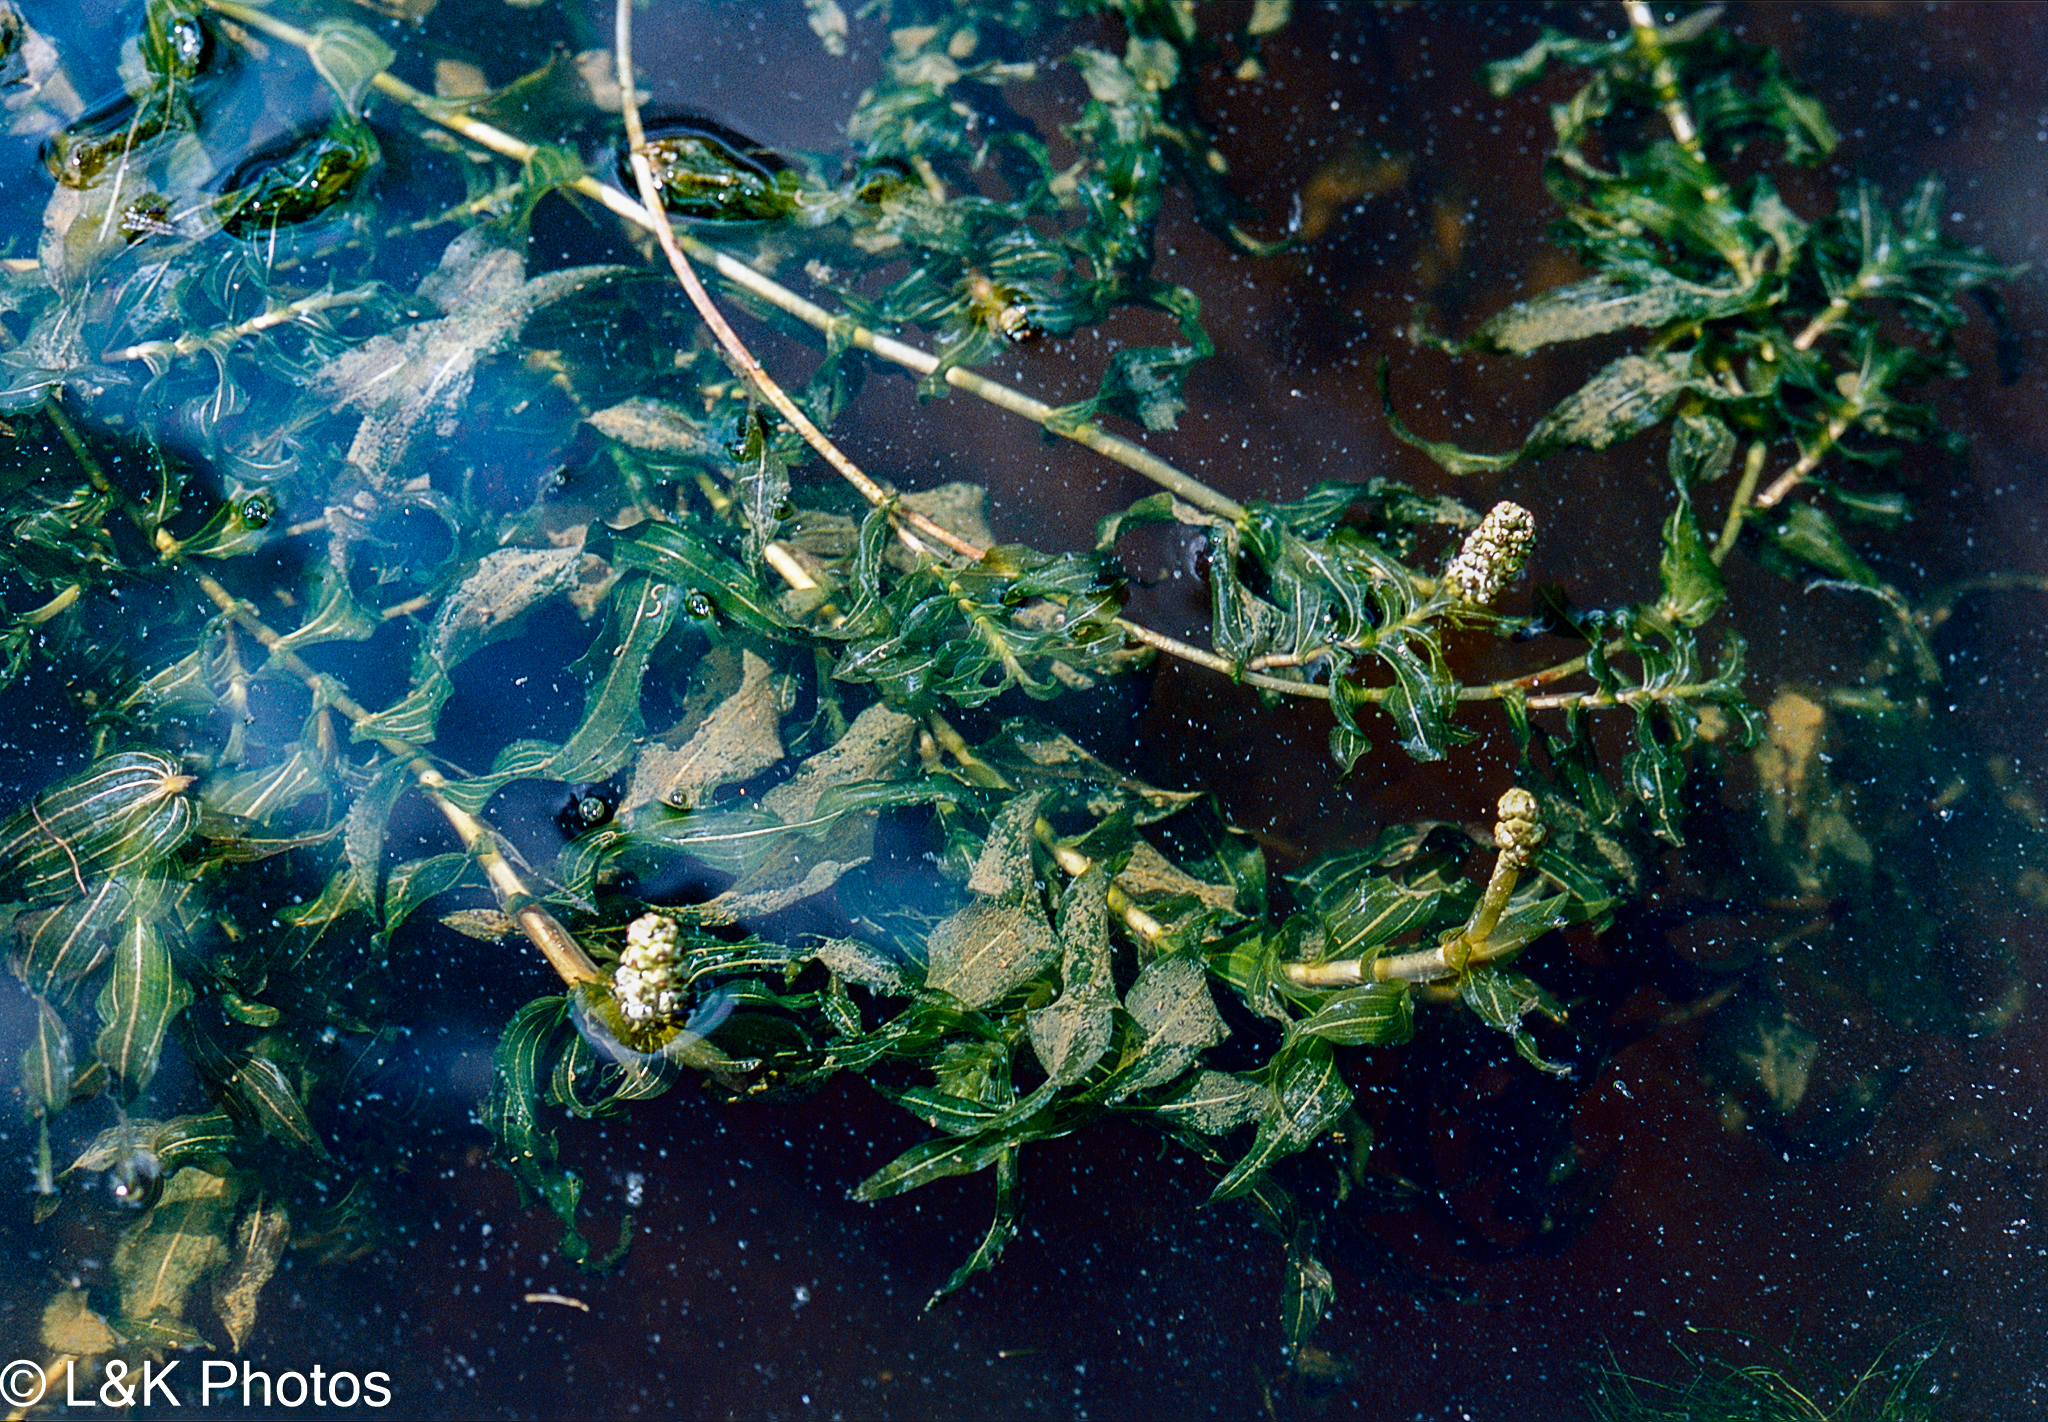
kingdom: Plantae
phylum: Tracheophyta
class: Liliopsida
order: Alismatales
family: Potamogetonaceae
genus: Potamogeton
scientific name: Potamogeton richardsonii
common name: Richardson's pondweed
